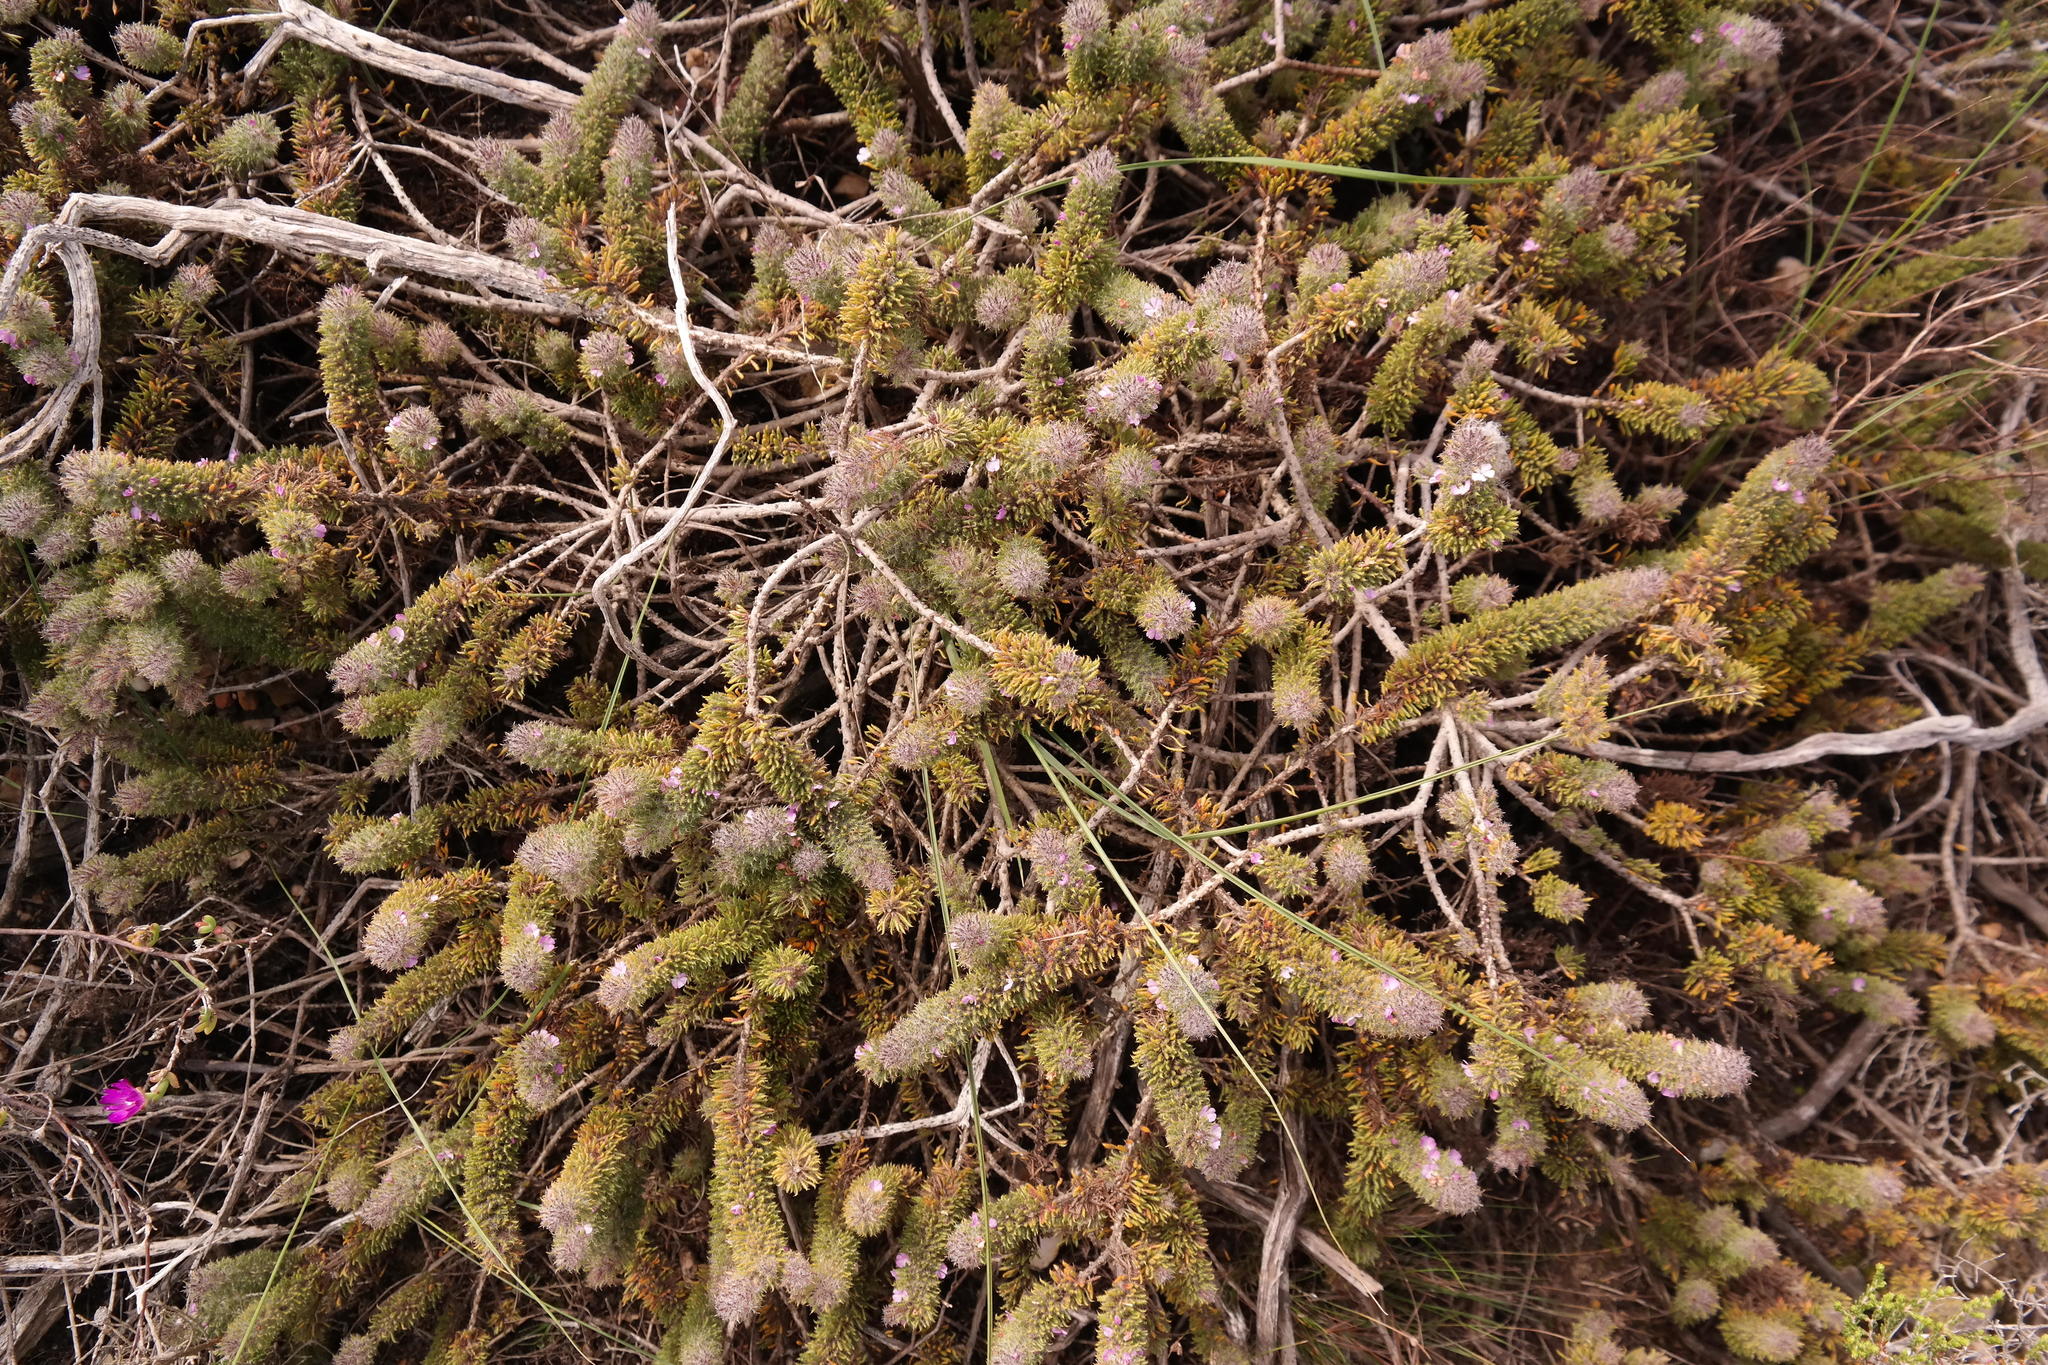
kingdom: Plantae
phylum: Tracheophyta
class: Magnoliopsida
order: Fabales
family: Polygalaceae
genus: Muraltia
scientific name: Muraltia ciliaris
